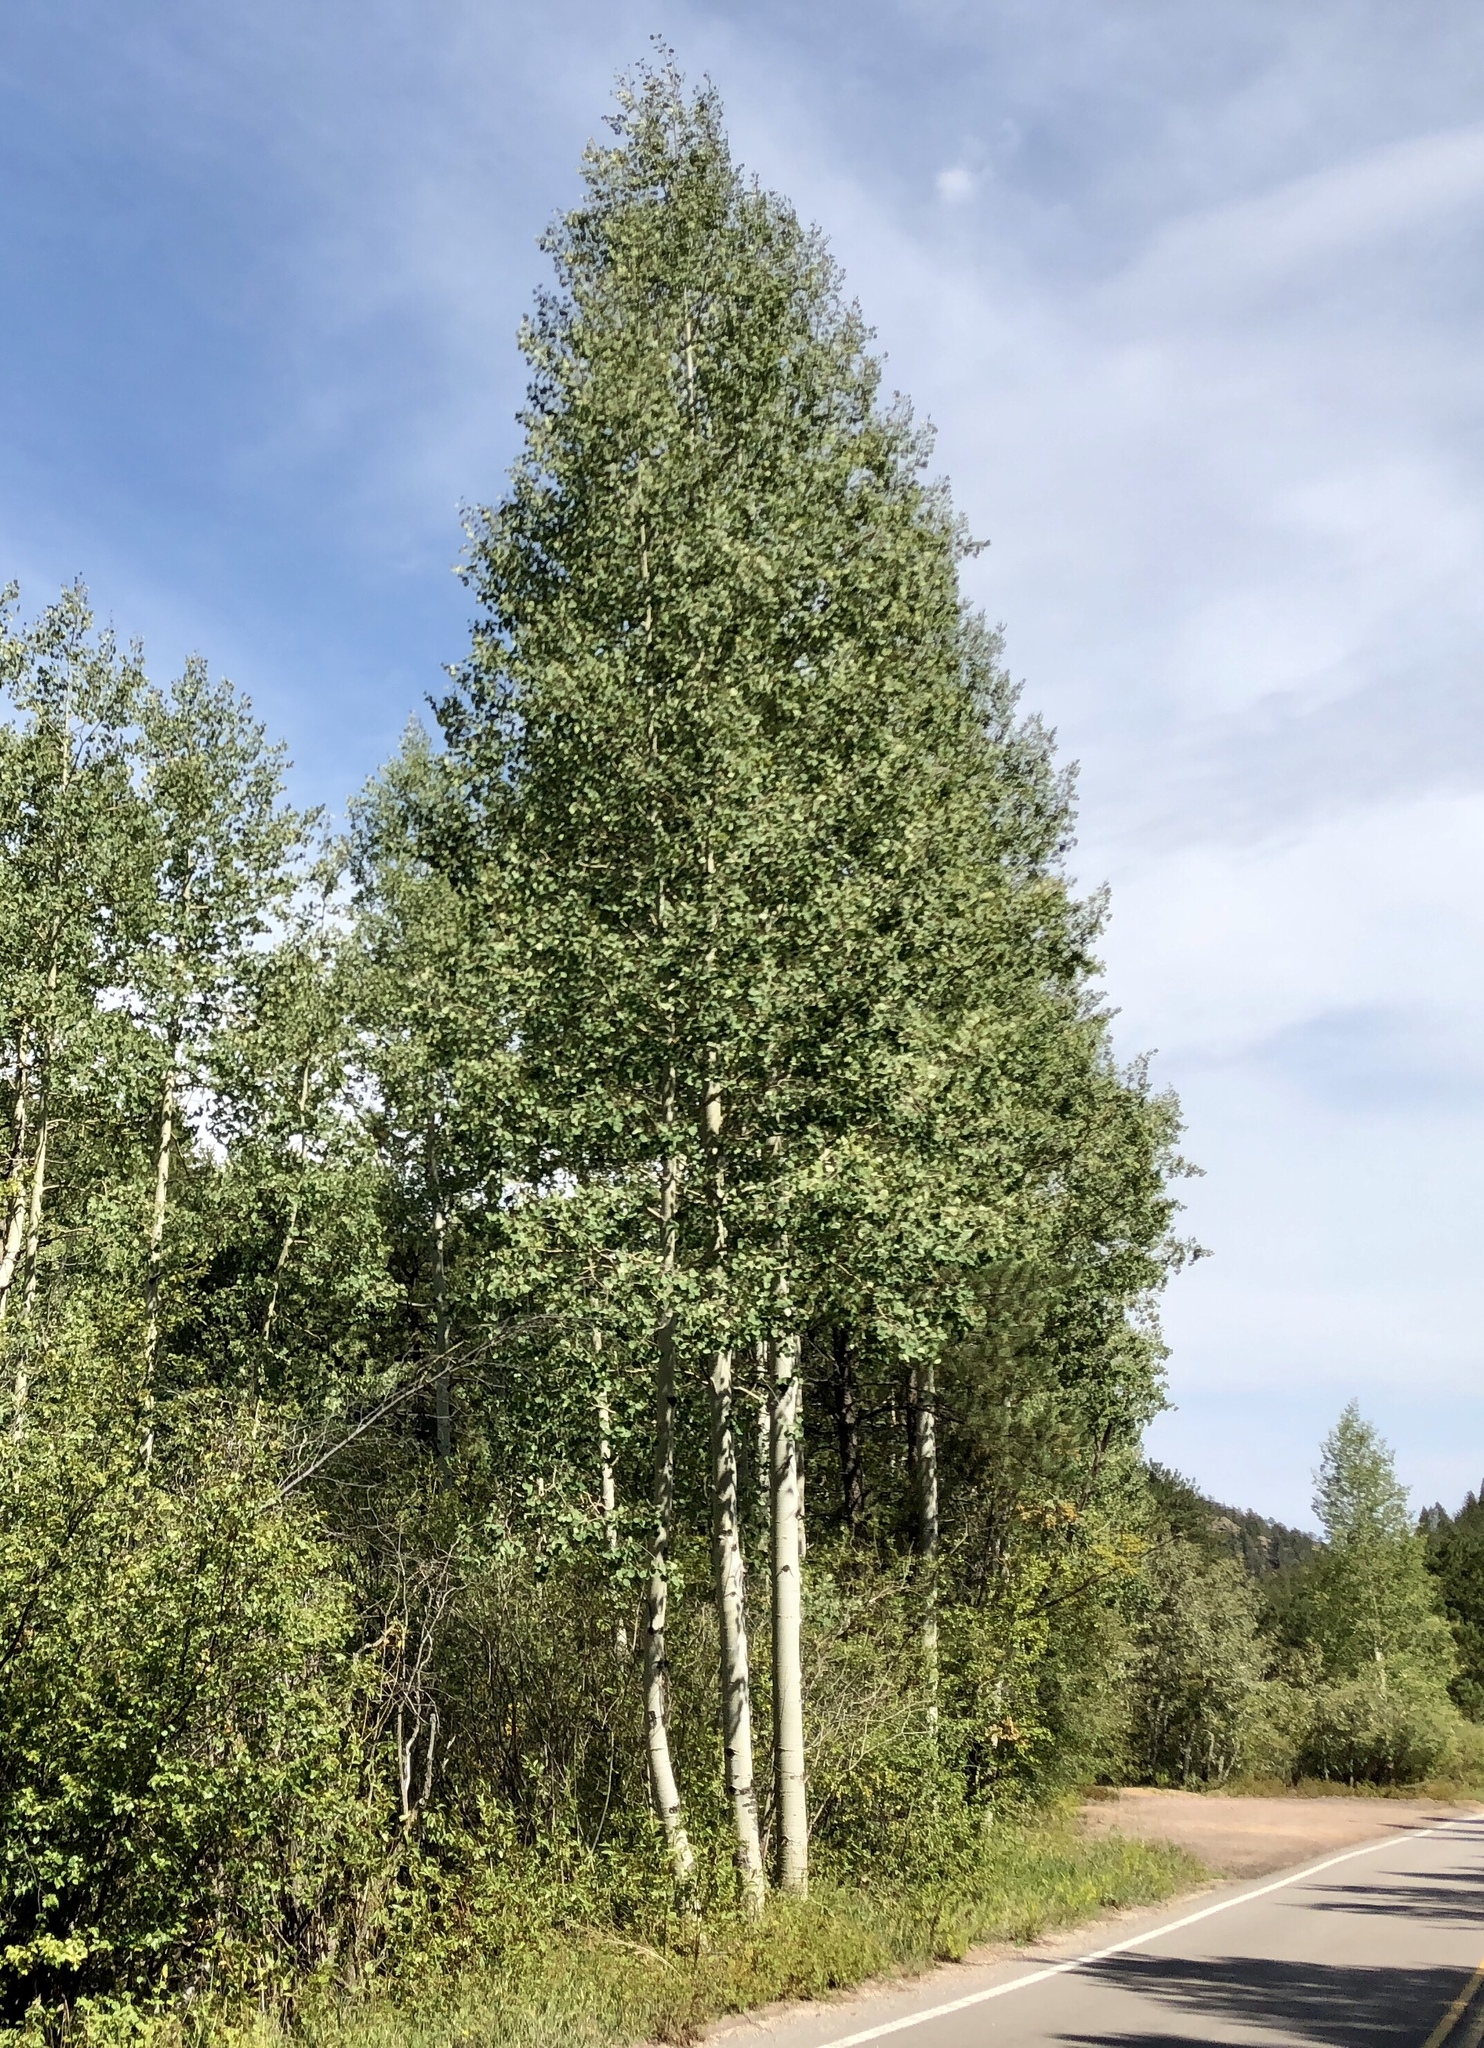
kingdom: Plantae
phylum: Tracheophyta
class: Magnoliopsida
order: Malpighiales
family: Salicaceae
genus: Populus
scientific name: Populus tremuloides
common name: Quaking aspen
